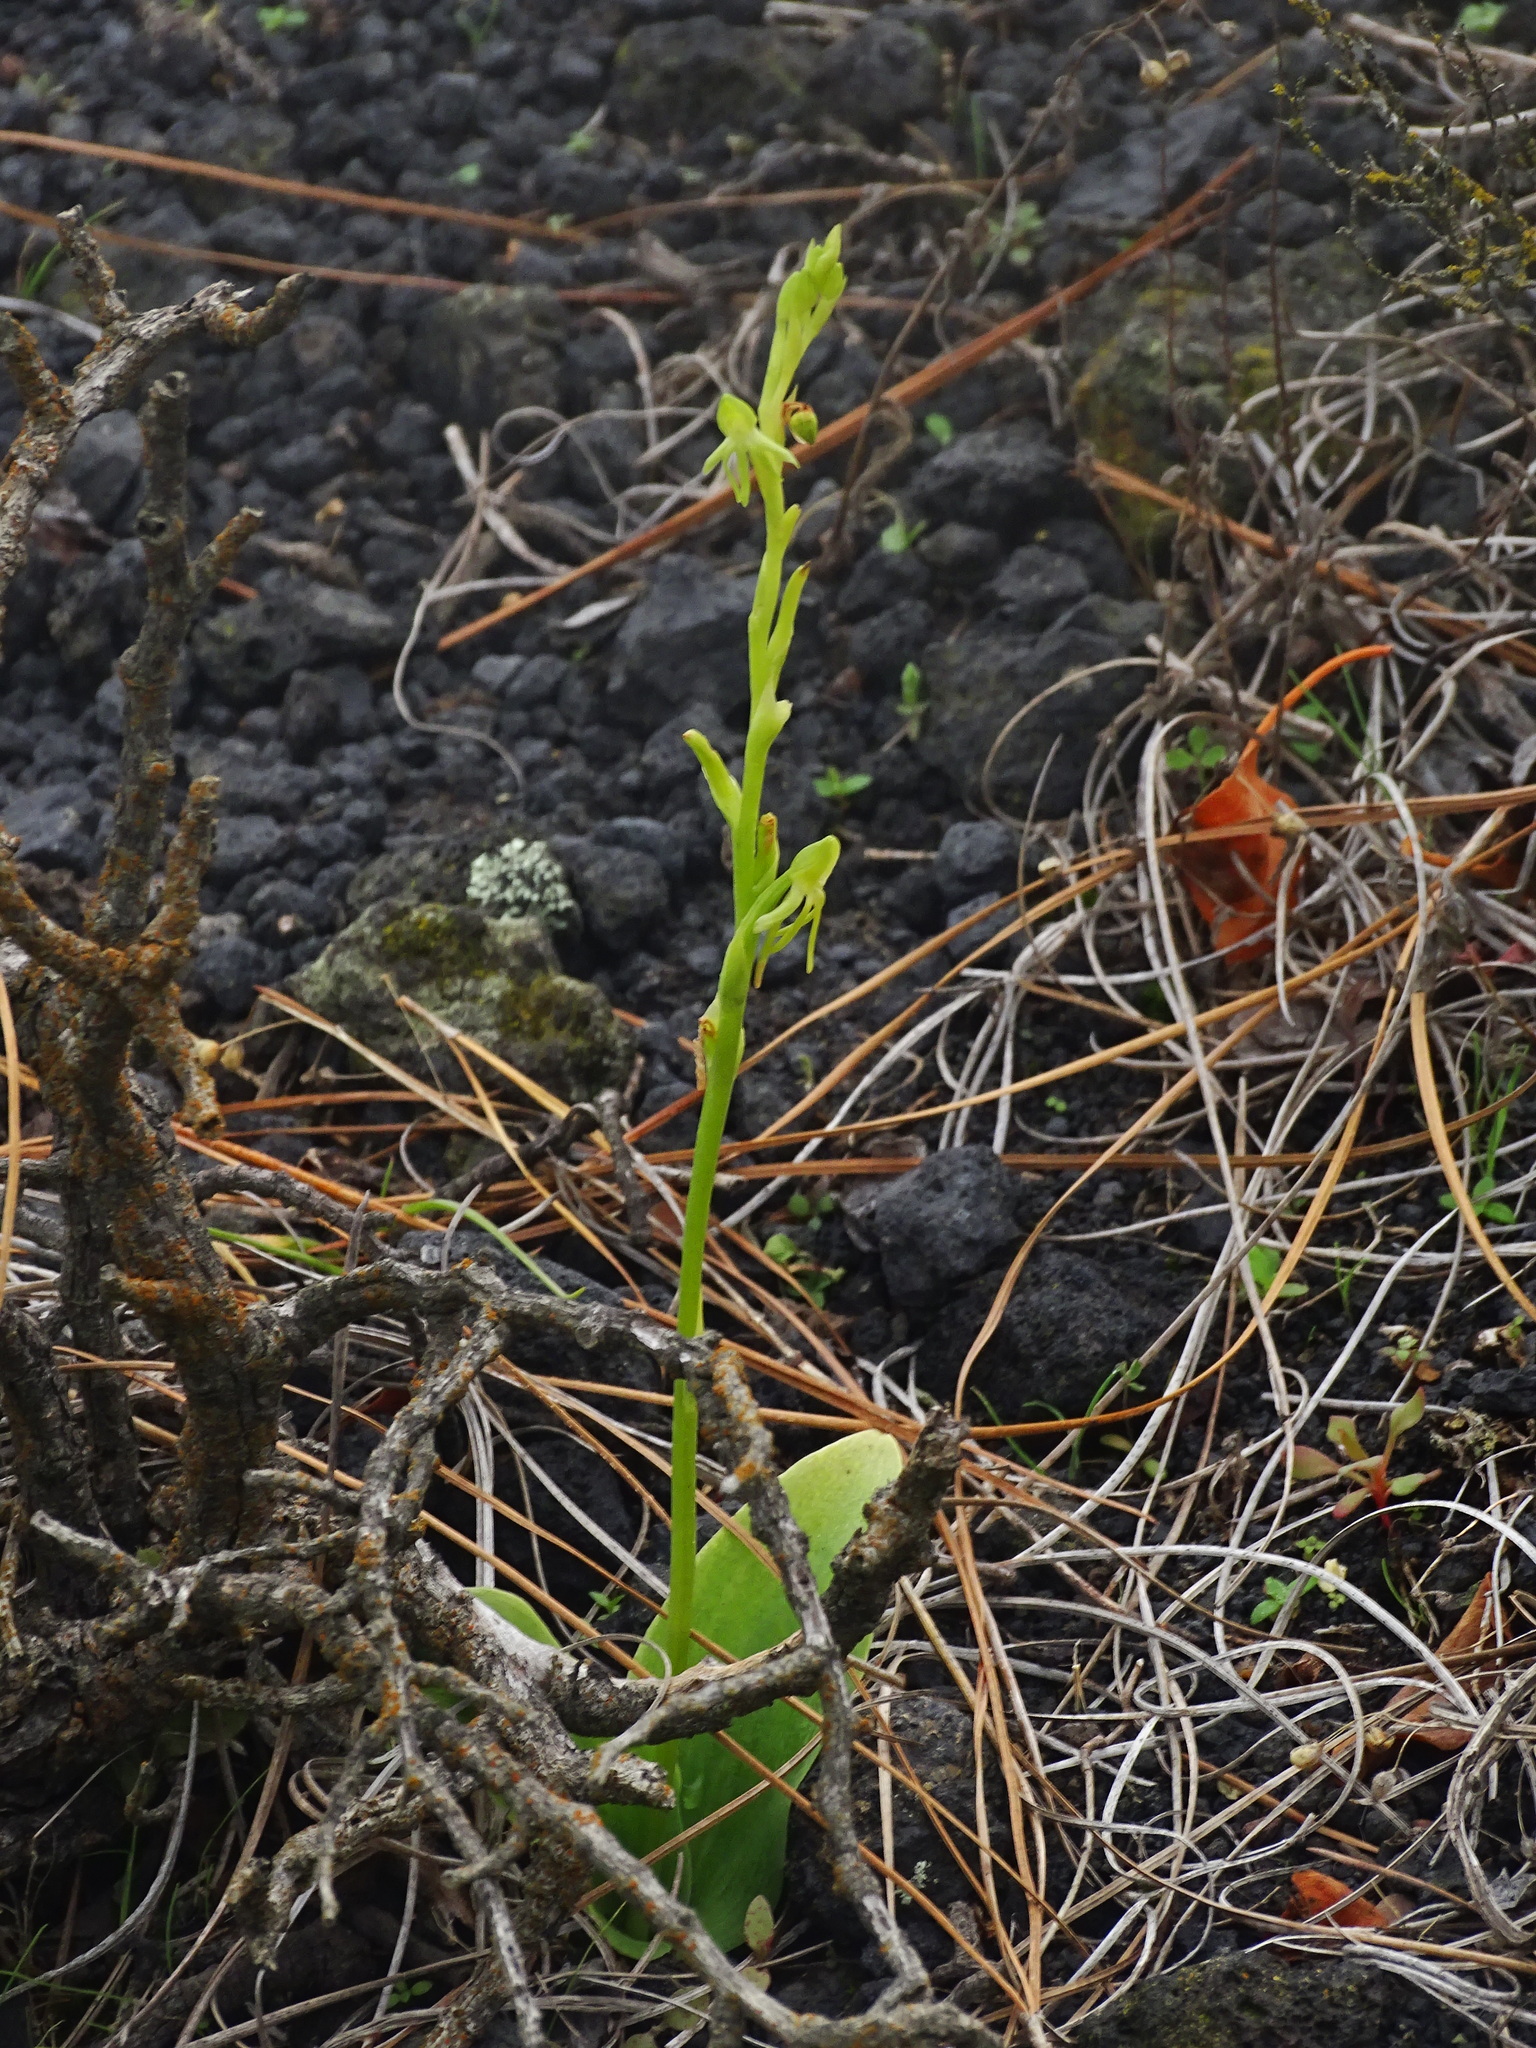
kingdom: Plantae
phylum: Tracheophyta
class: Liliopsida
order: Asparagales
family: Orchidaceae
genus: Habenaria
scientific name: Habenaria tridactylites
